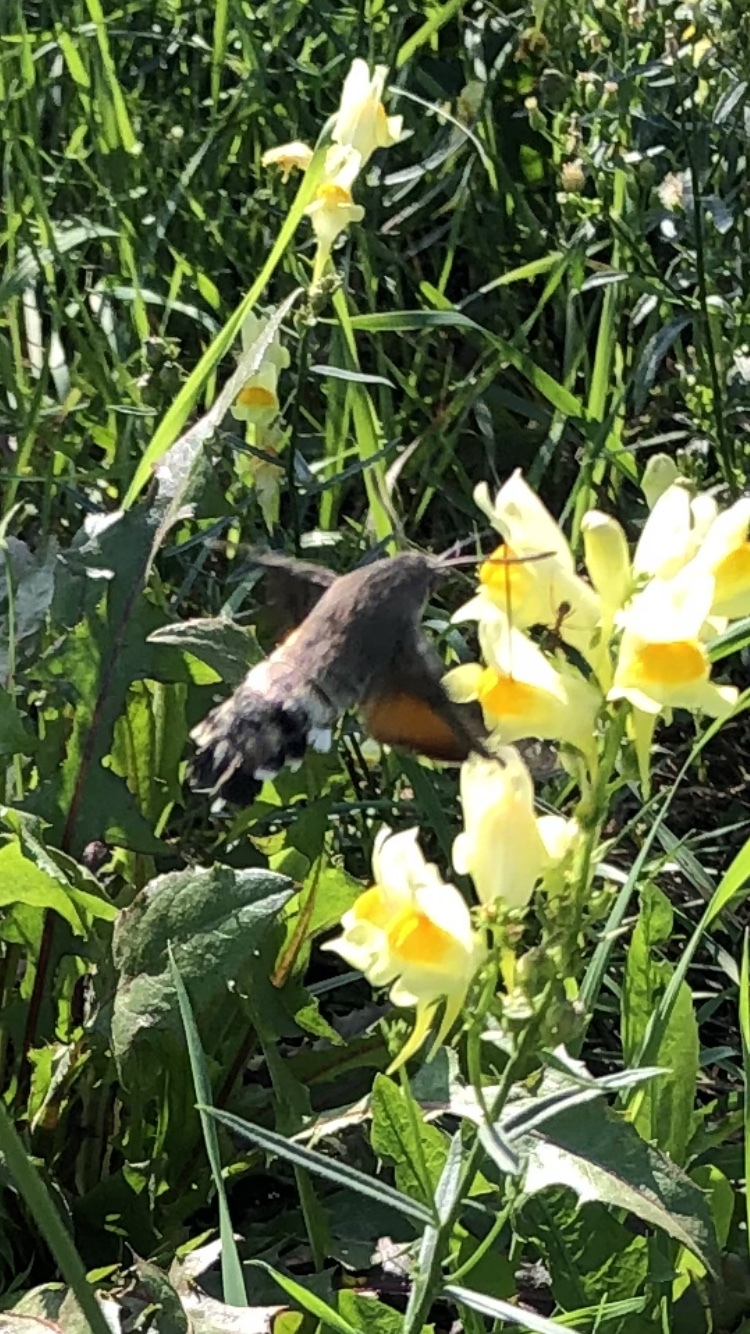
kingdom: Animalia
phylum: Arthropoda
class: Insecta
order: Lepidoptera
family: Sphingidae
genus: Macroglossum
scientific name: Macroglossum stellatarum
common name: Humming-bird hawk-moth
